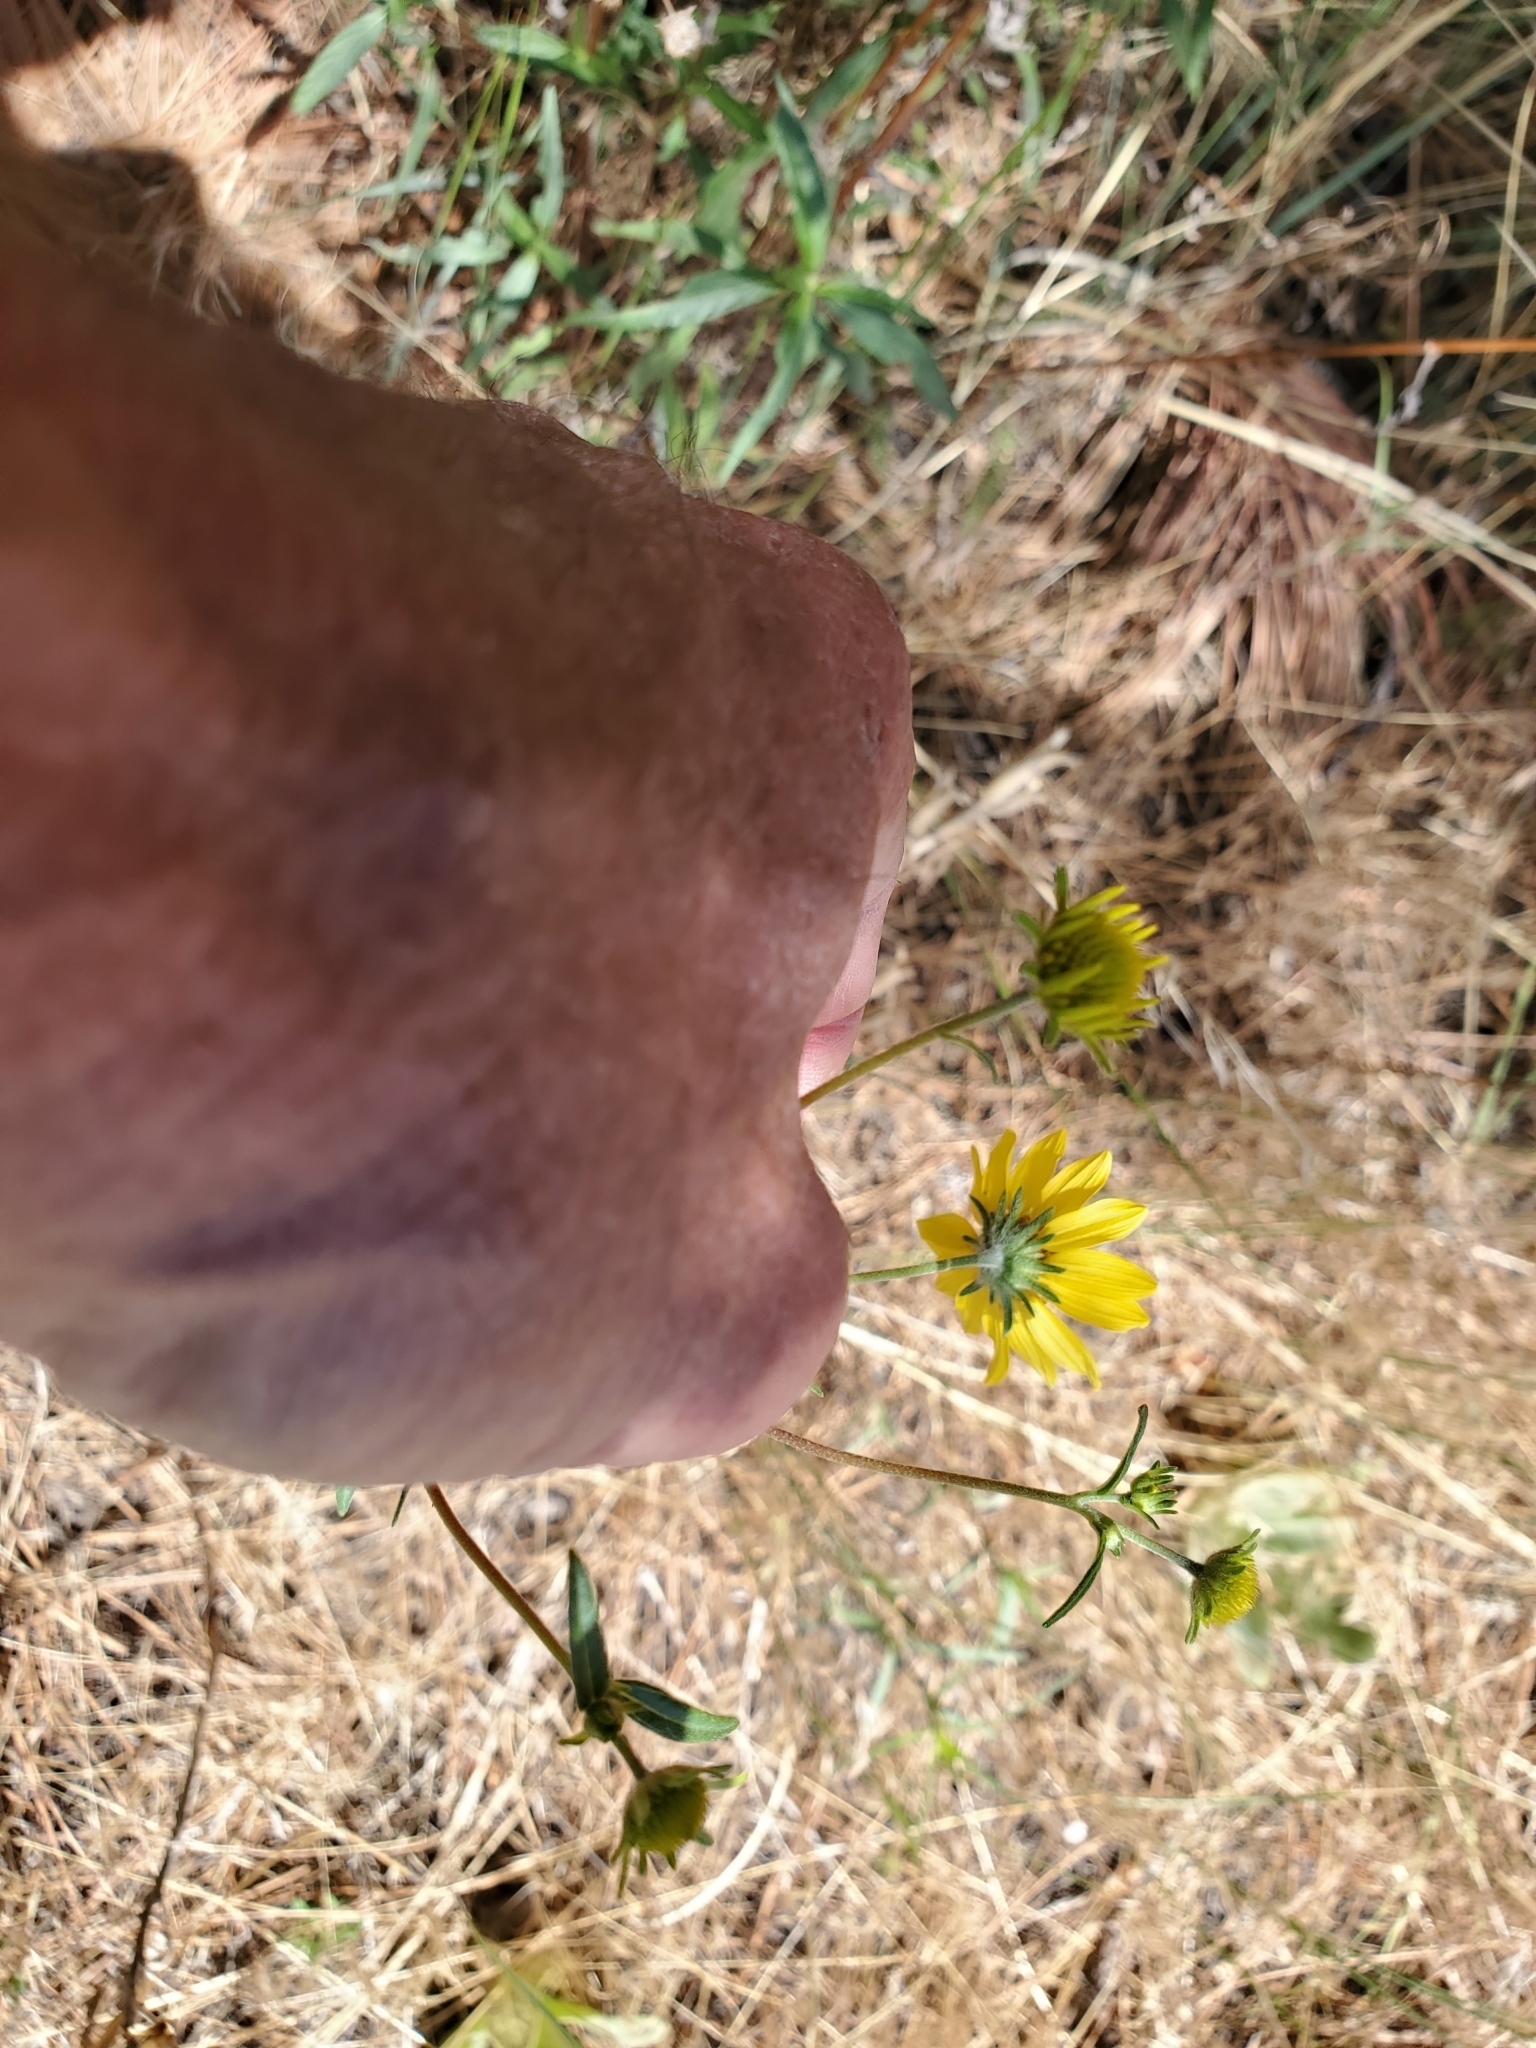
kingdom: Plantae
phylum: Tracheophyta
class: Magnoliopsida
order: Asterales
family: Asteraceae
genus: Heliomeris
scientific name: Heliomeris multiflora
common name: Showy goldeneye
